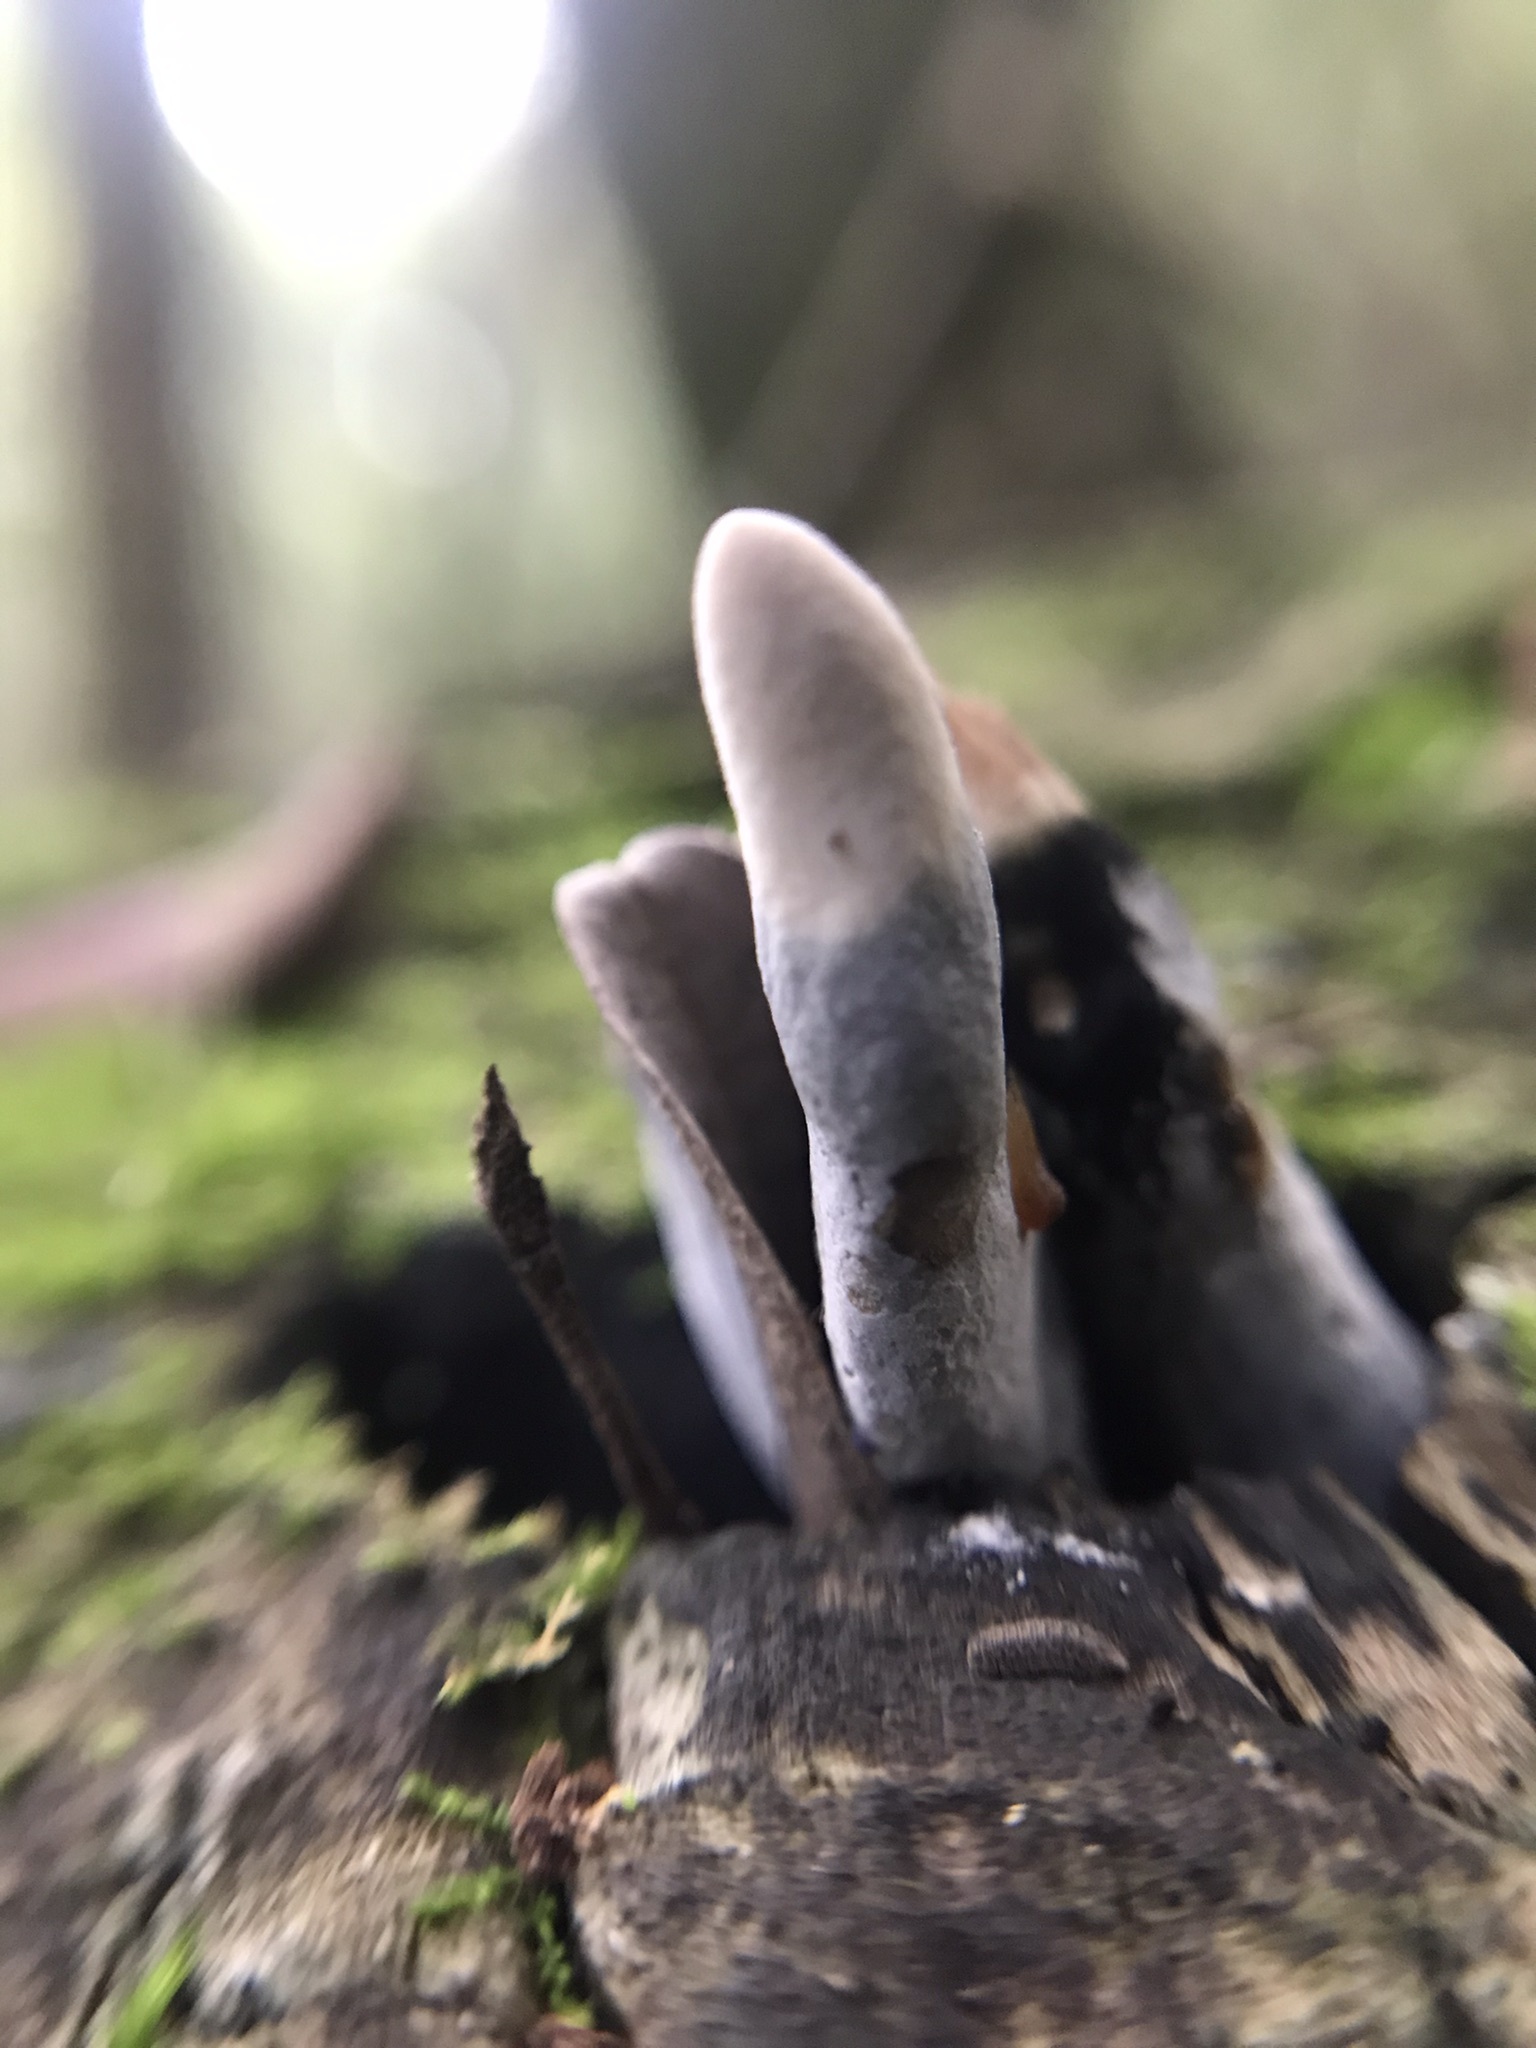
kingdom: Fungi
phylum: Ascomycota
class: Sordariomycetes
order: Xylariales
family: Xylariaceae
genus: Xylaria
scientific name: Xylaria polymorpha
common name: Dead man's fingers
